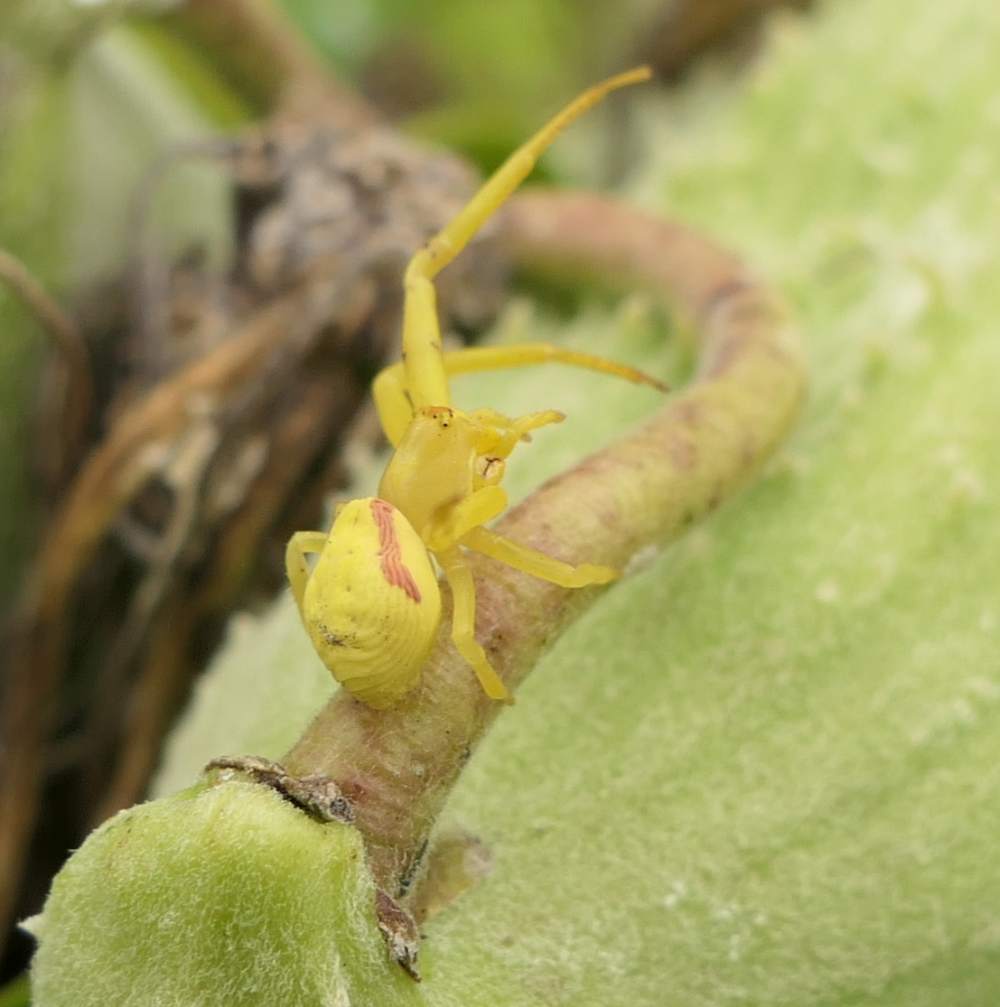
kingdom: Animalia
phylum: Arthropoda
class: Arachnida
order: Araneae
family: Thomisidae
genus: Misumena
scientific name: Misumena vatia
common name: Goldenrod crab spider
